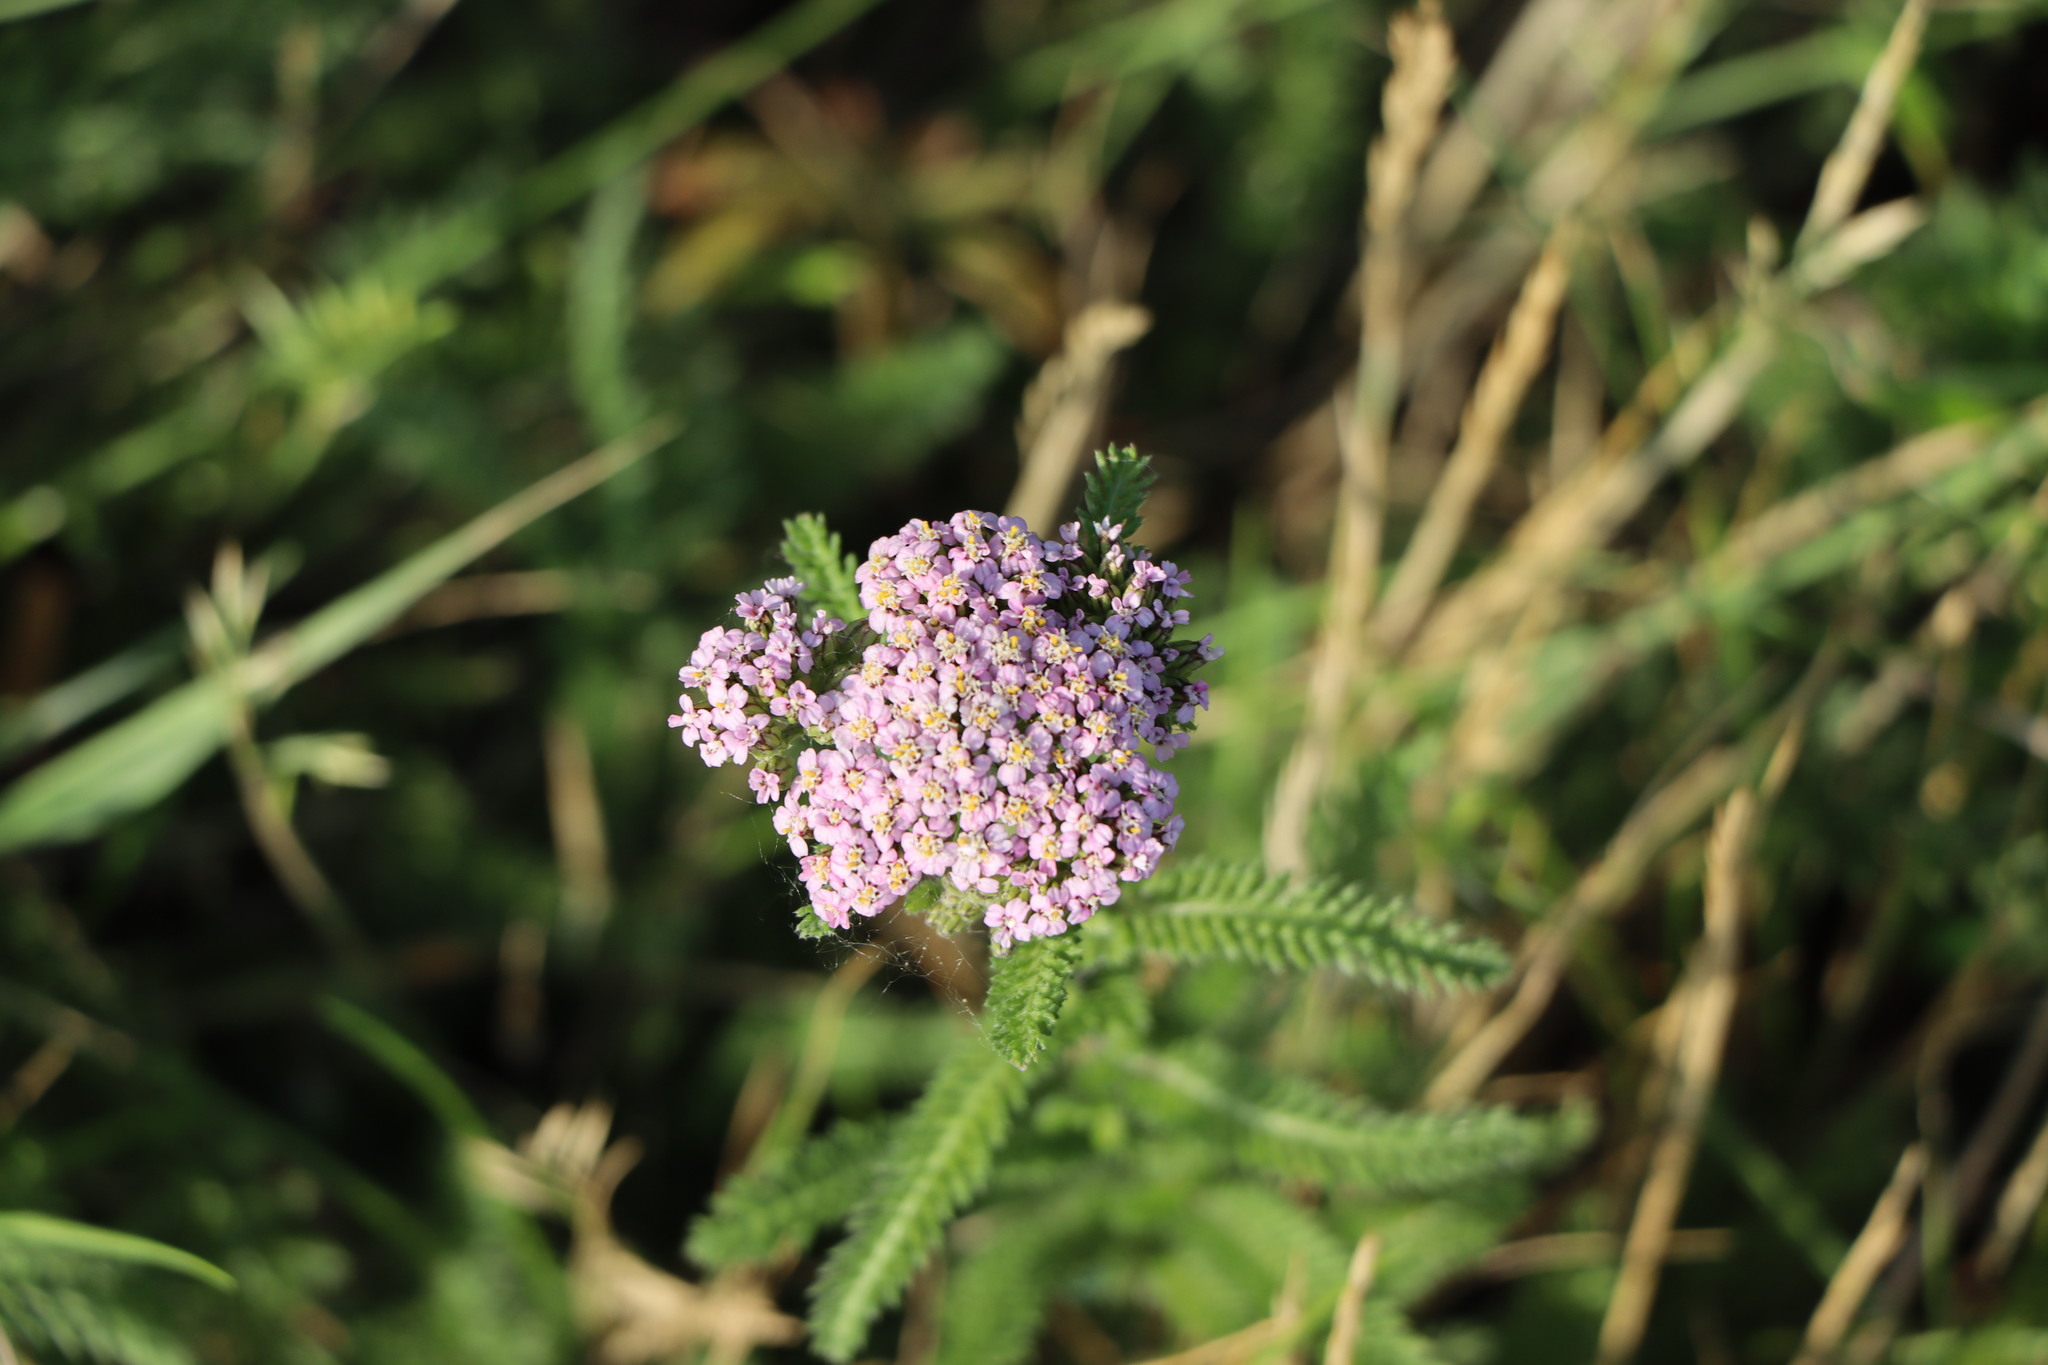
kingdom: Plantae
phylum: Tracheophyta
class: Magnoliopsida
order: Asterales
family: Asteraceae
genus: Achillea
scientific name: Achillea millefolium
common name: Yarrow
